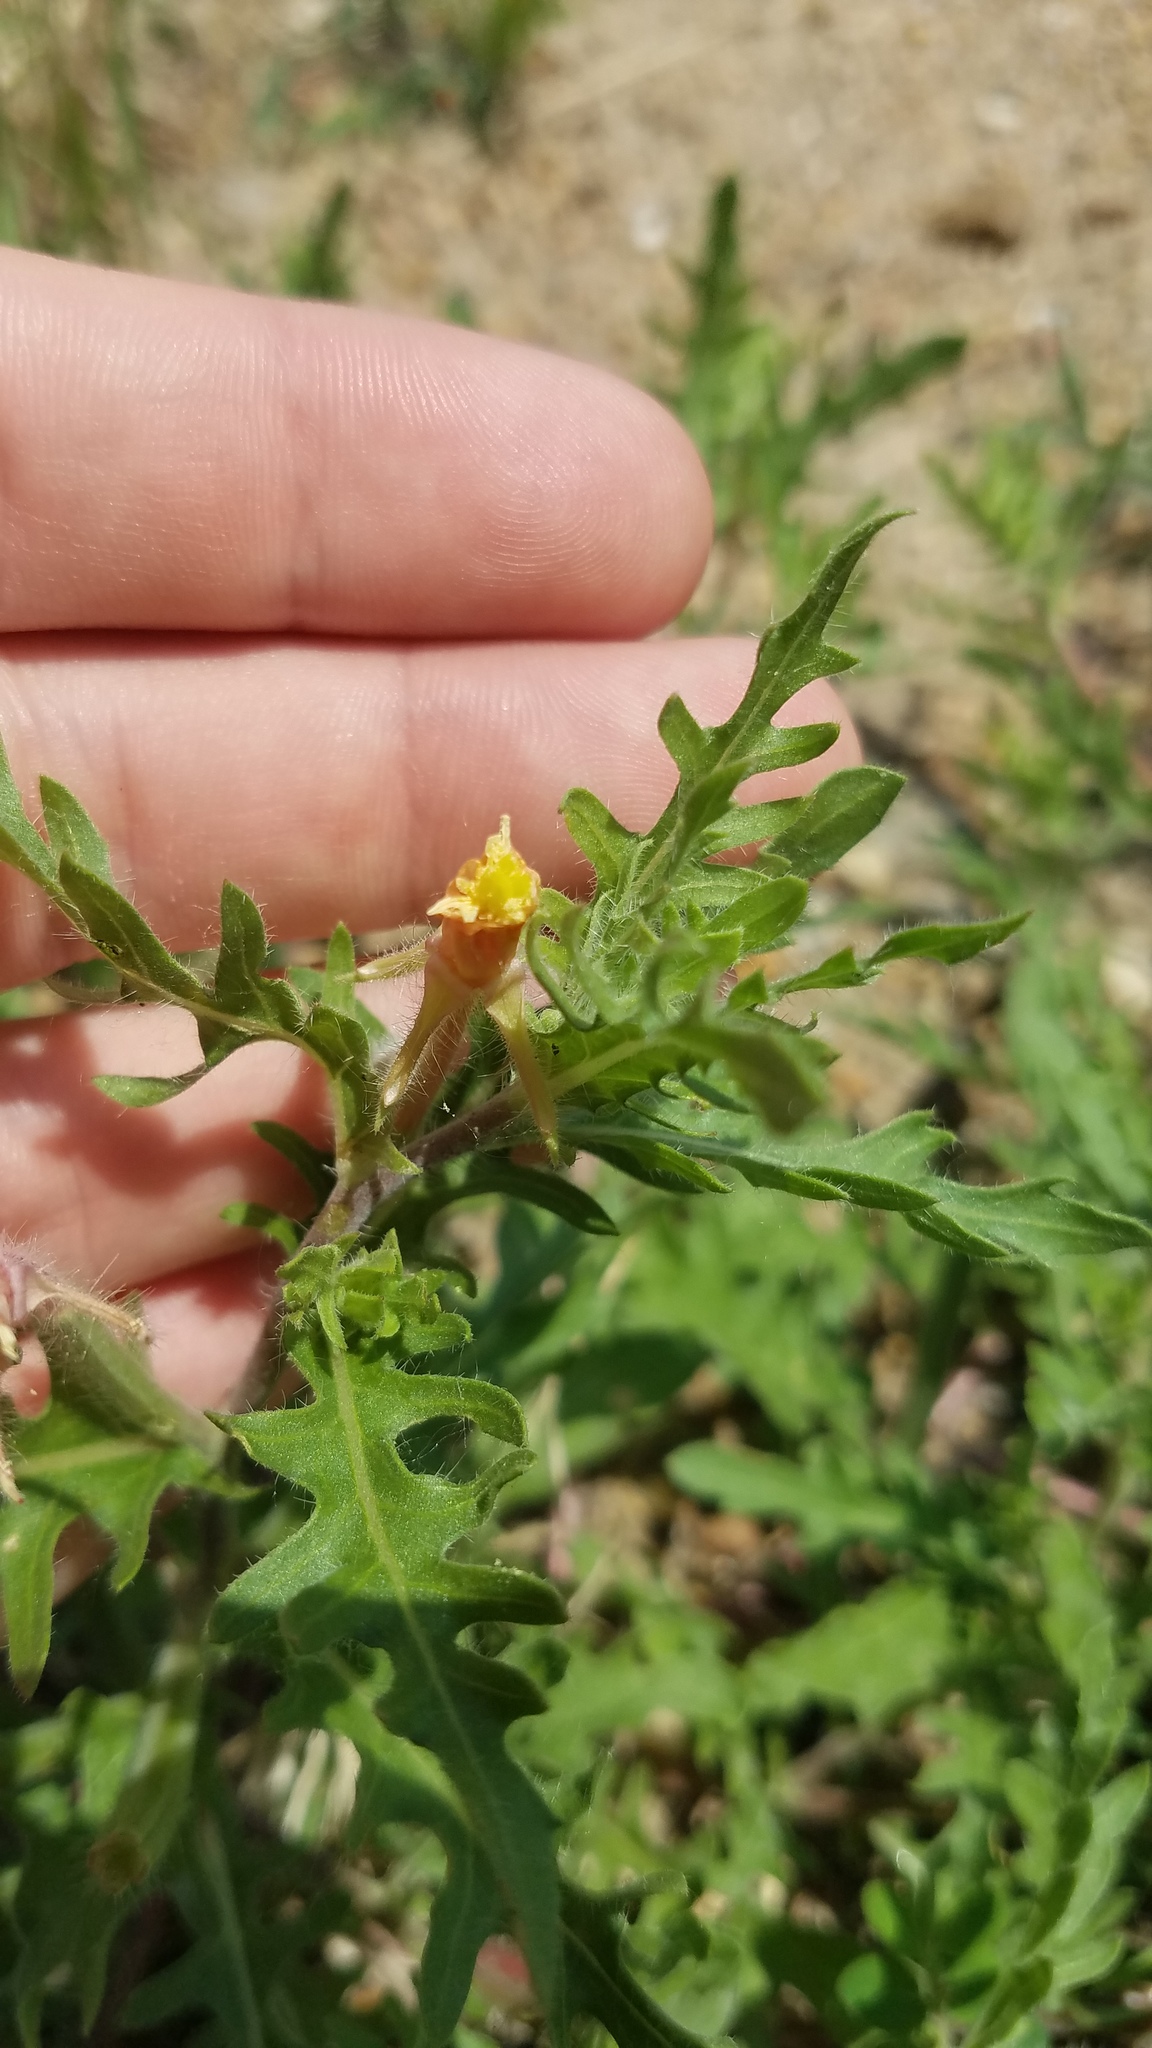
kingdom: Plantae
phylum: Tracheophyta
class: Magnoliopsida
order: Myrtales
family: Onagraceae
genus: Oenothera
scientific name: Oenothera laciniata
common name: Cut-leaved evening-primrose
